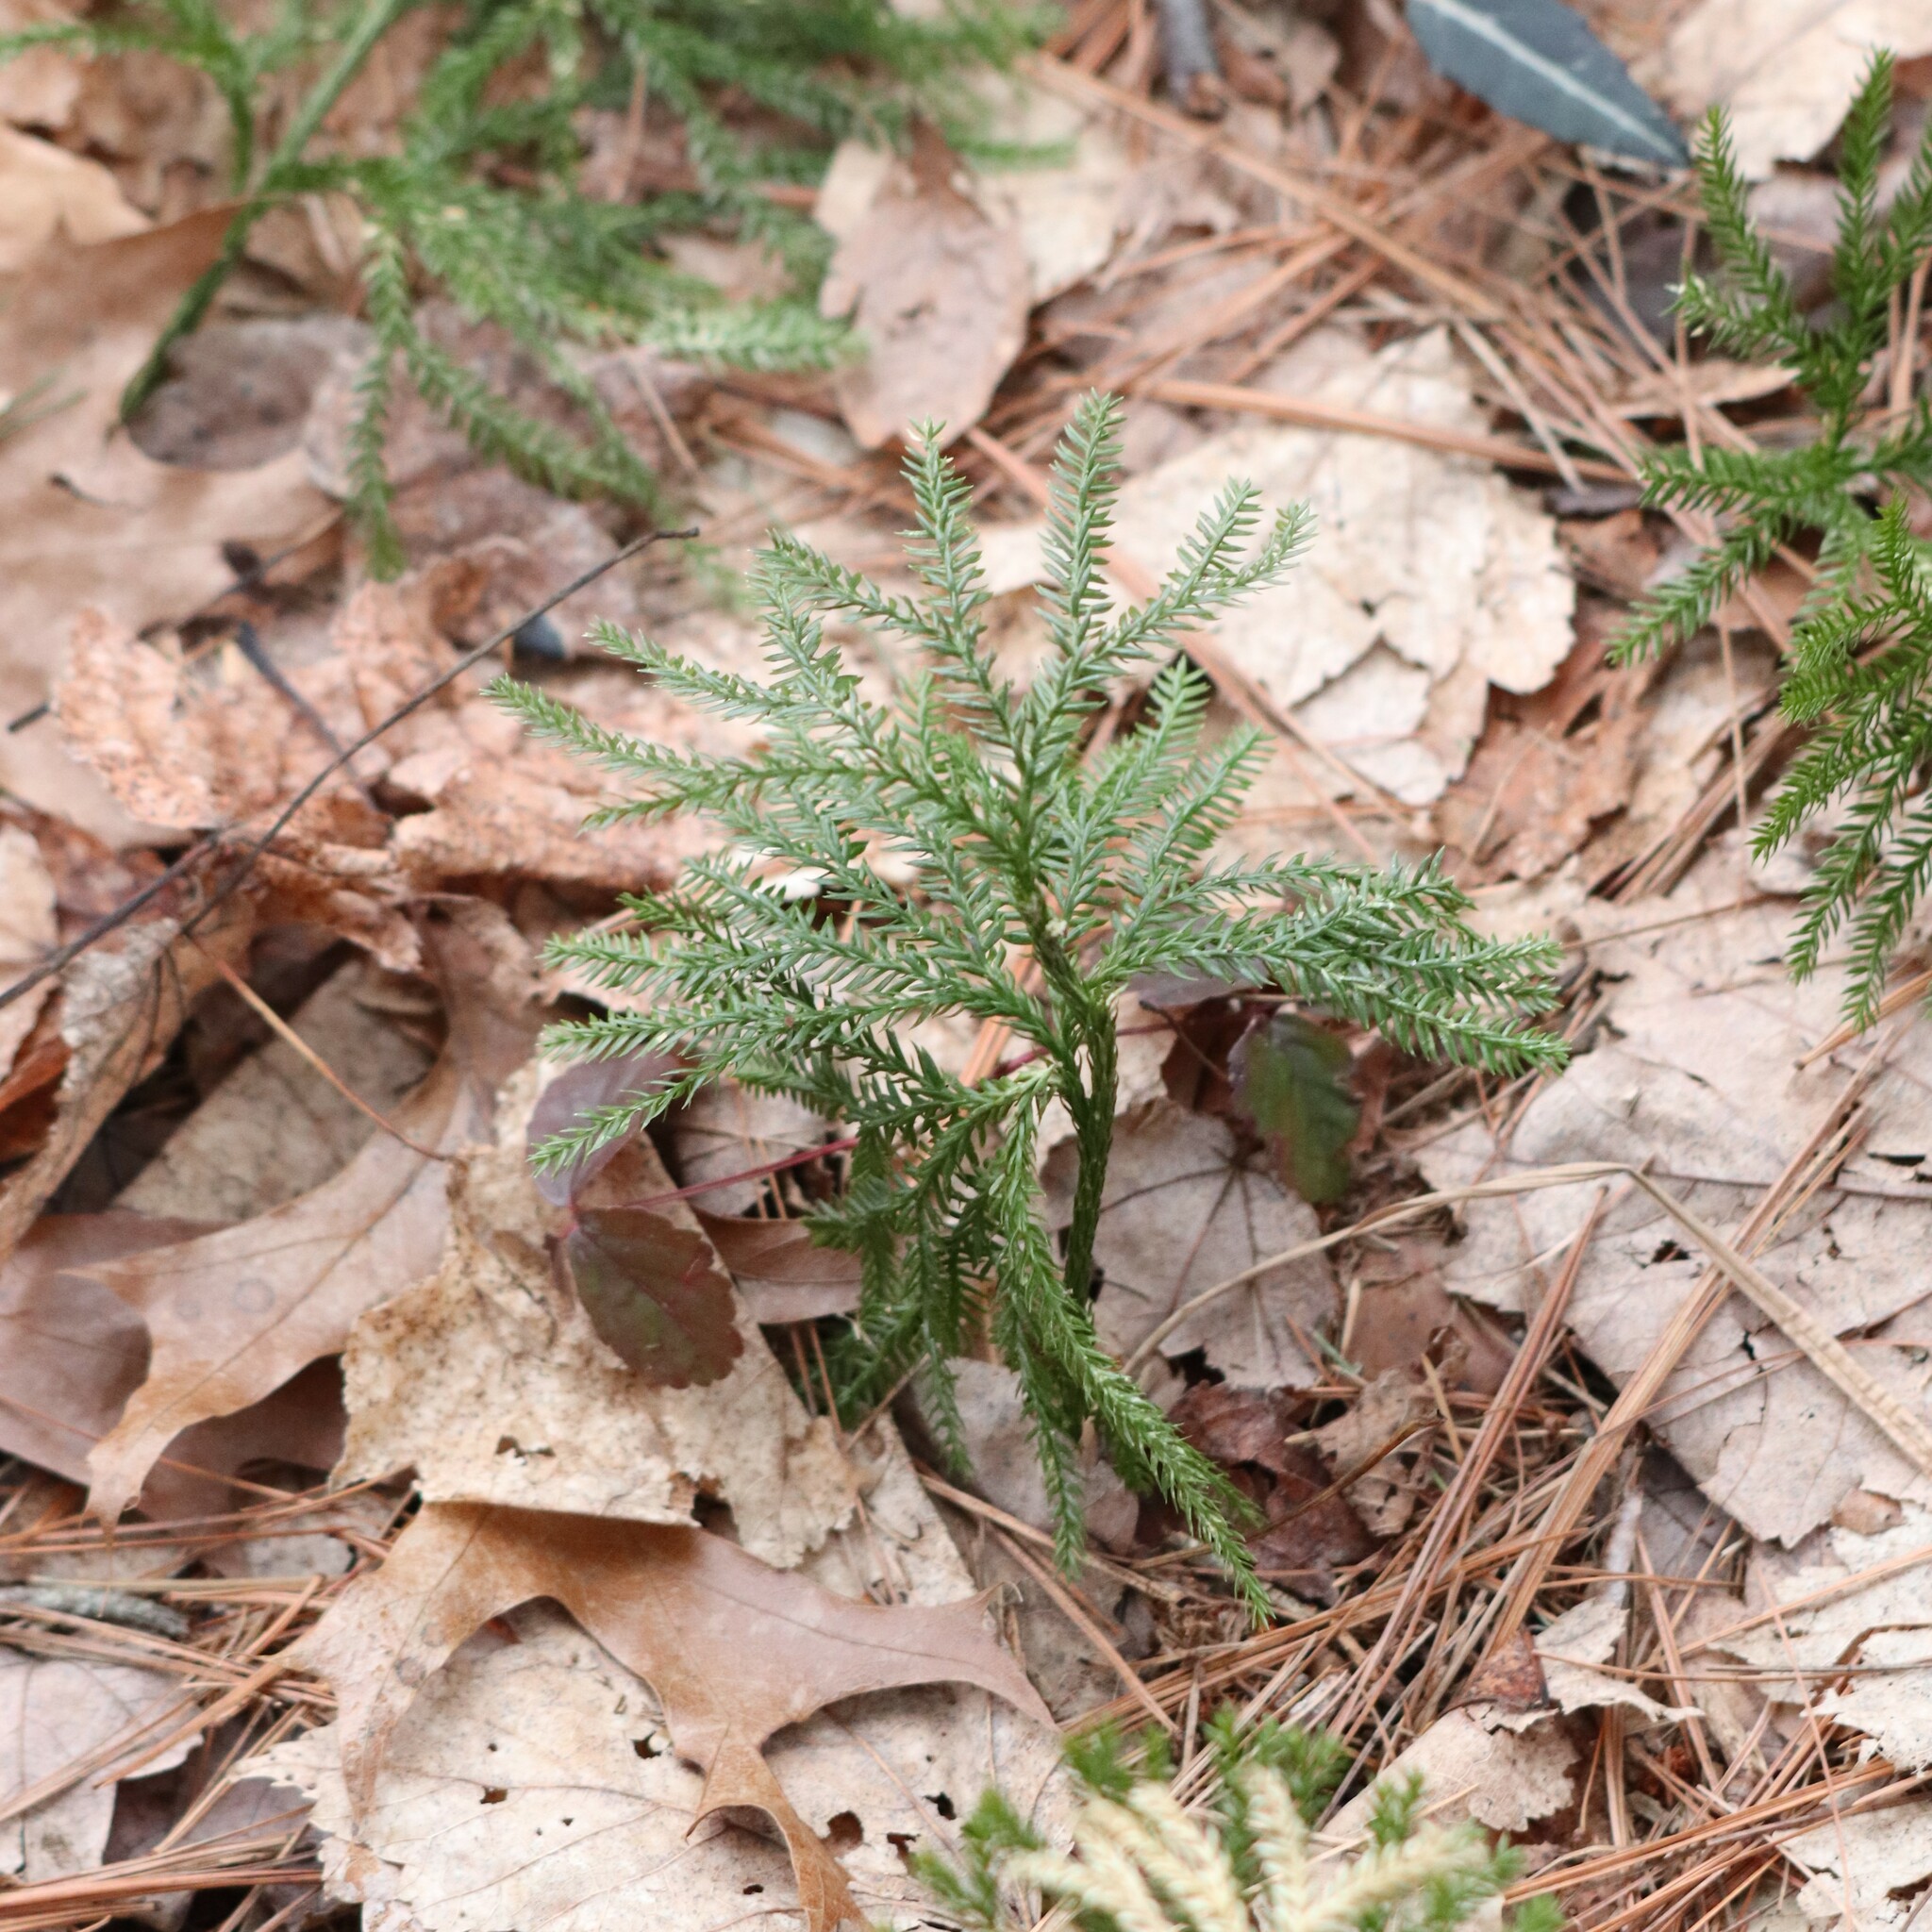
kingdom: Plantae
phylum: Tracheophyta
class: Lycopodiopsida
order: Lycopodiales
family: Lycopodiaceae
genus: Dendrolycopodium
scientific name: Dendrolycopodium obscurum
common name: Common ground-pine
